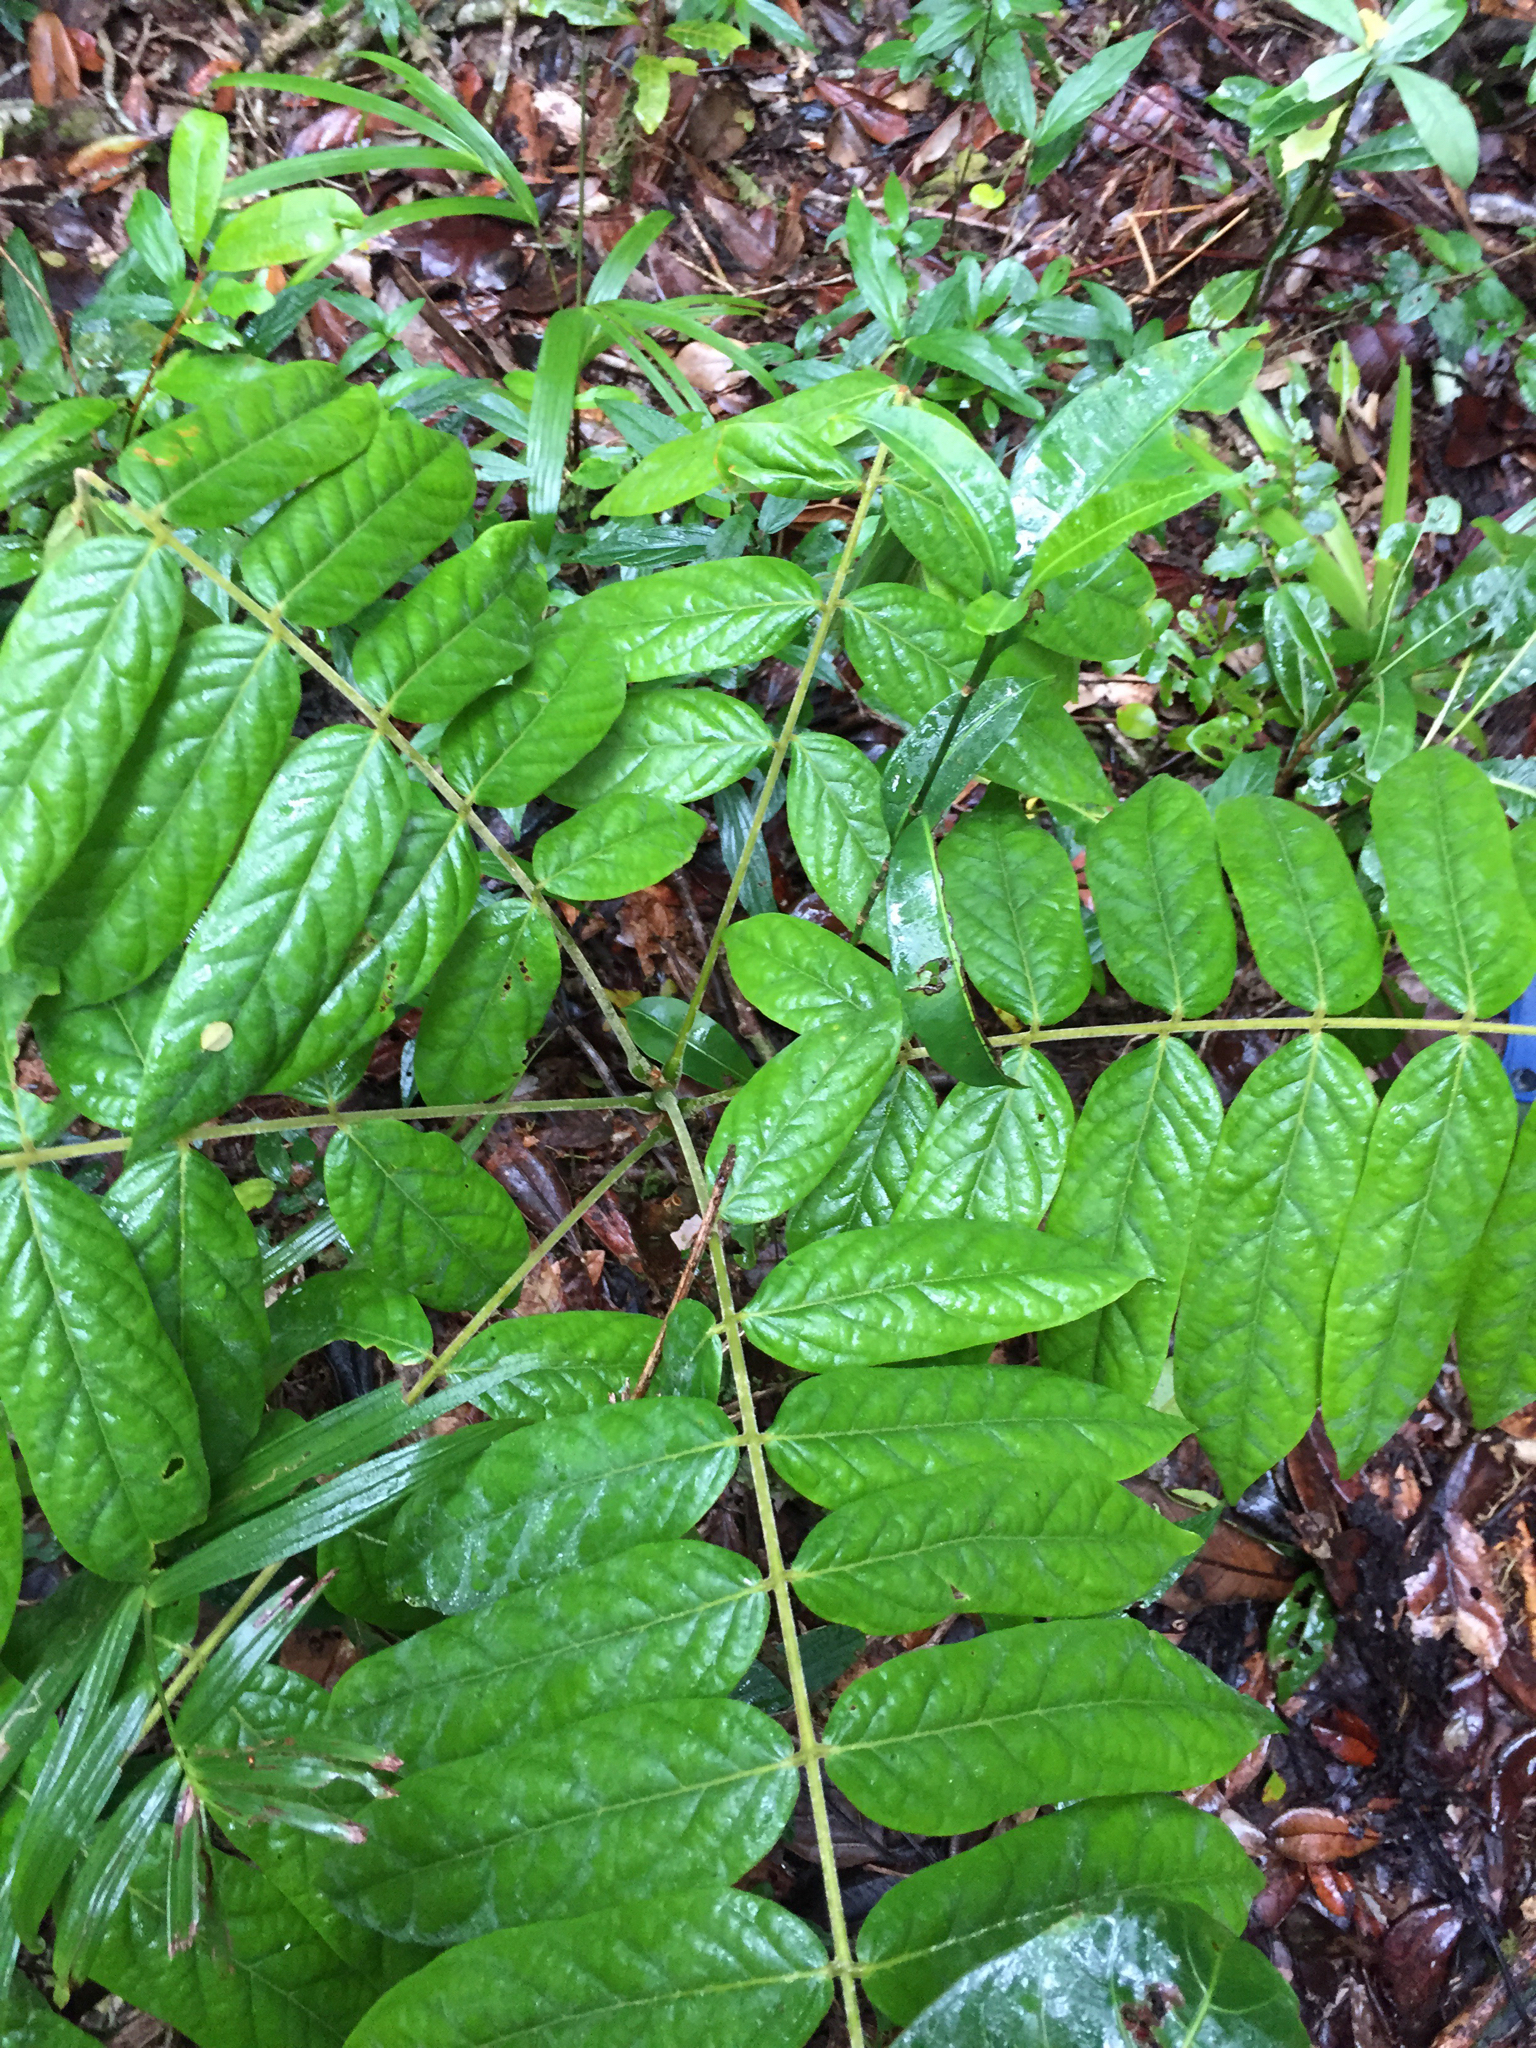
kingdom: Plantae
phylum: Tracheophyta
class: Magnoliopsida
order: Oxalidales
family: Connaraceae
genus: Cnestis
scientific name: Cnestis polyphylla
